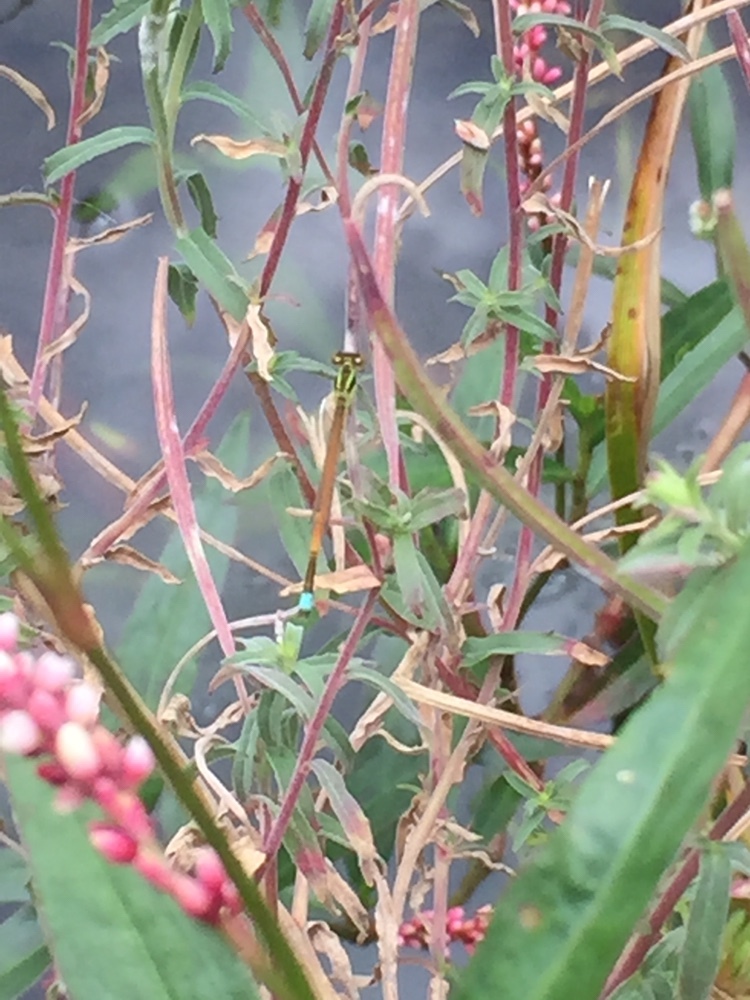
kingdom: Animalia
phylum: Arthropoda
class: Insecta
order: Odonata
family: Coenagrionidae
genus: Ischnura
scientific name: Ischnura aurora
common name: Gossamer damselfly
